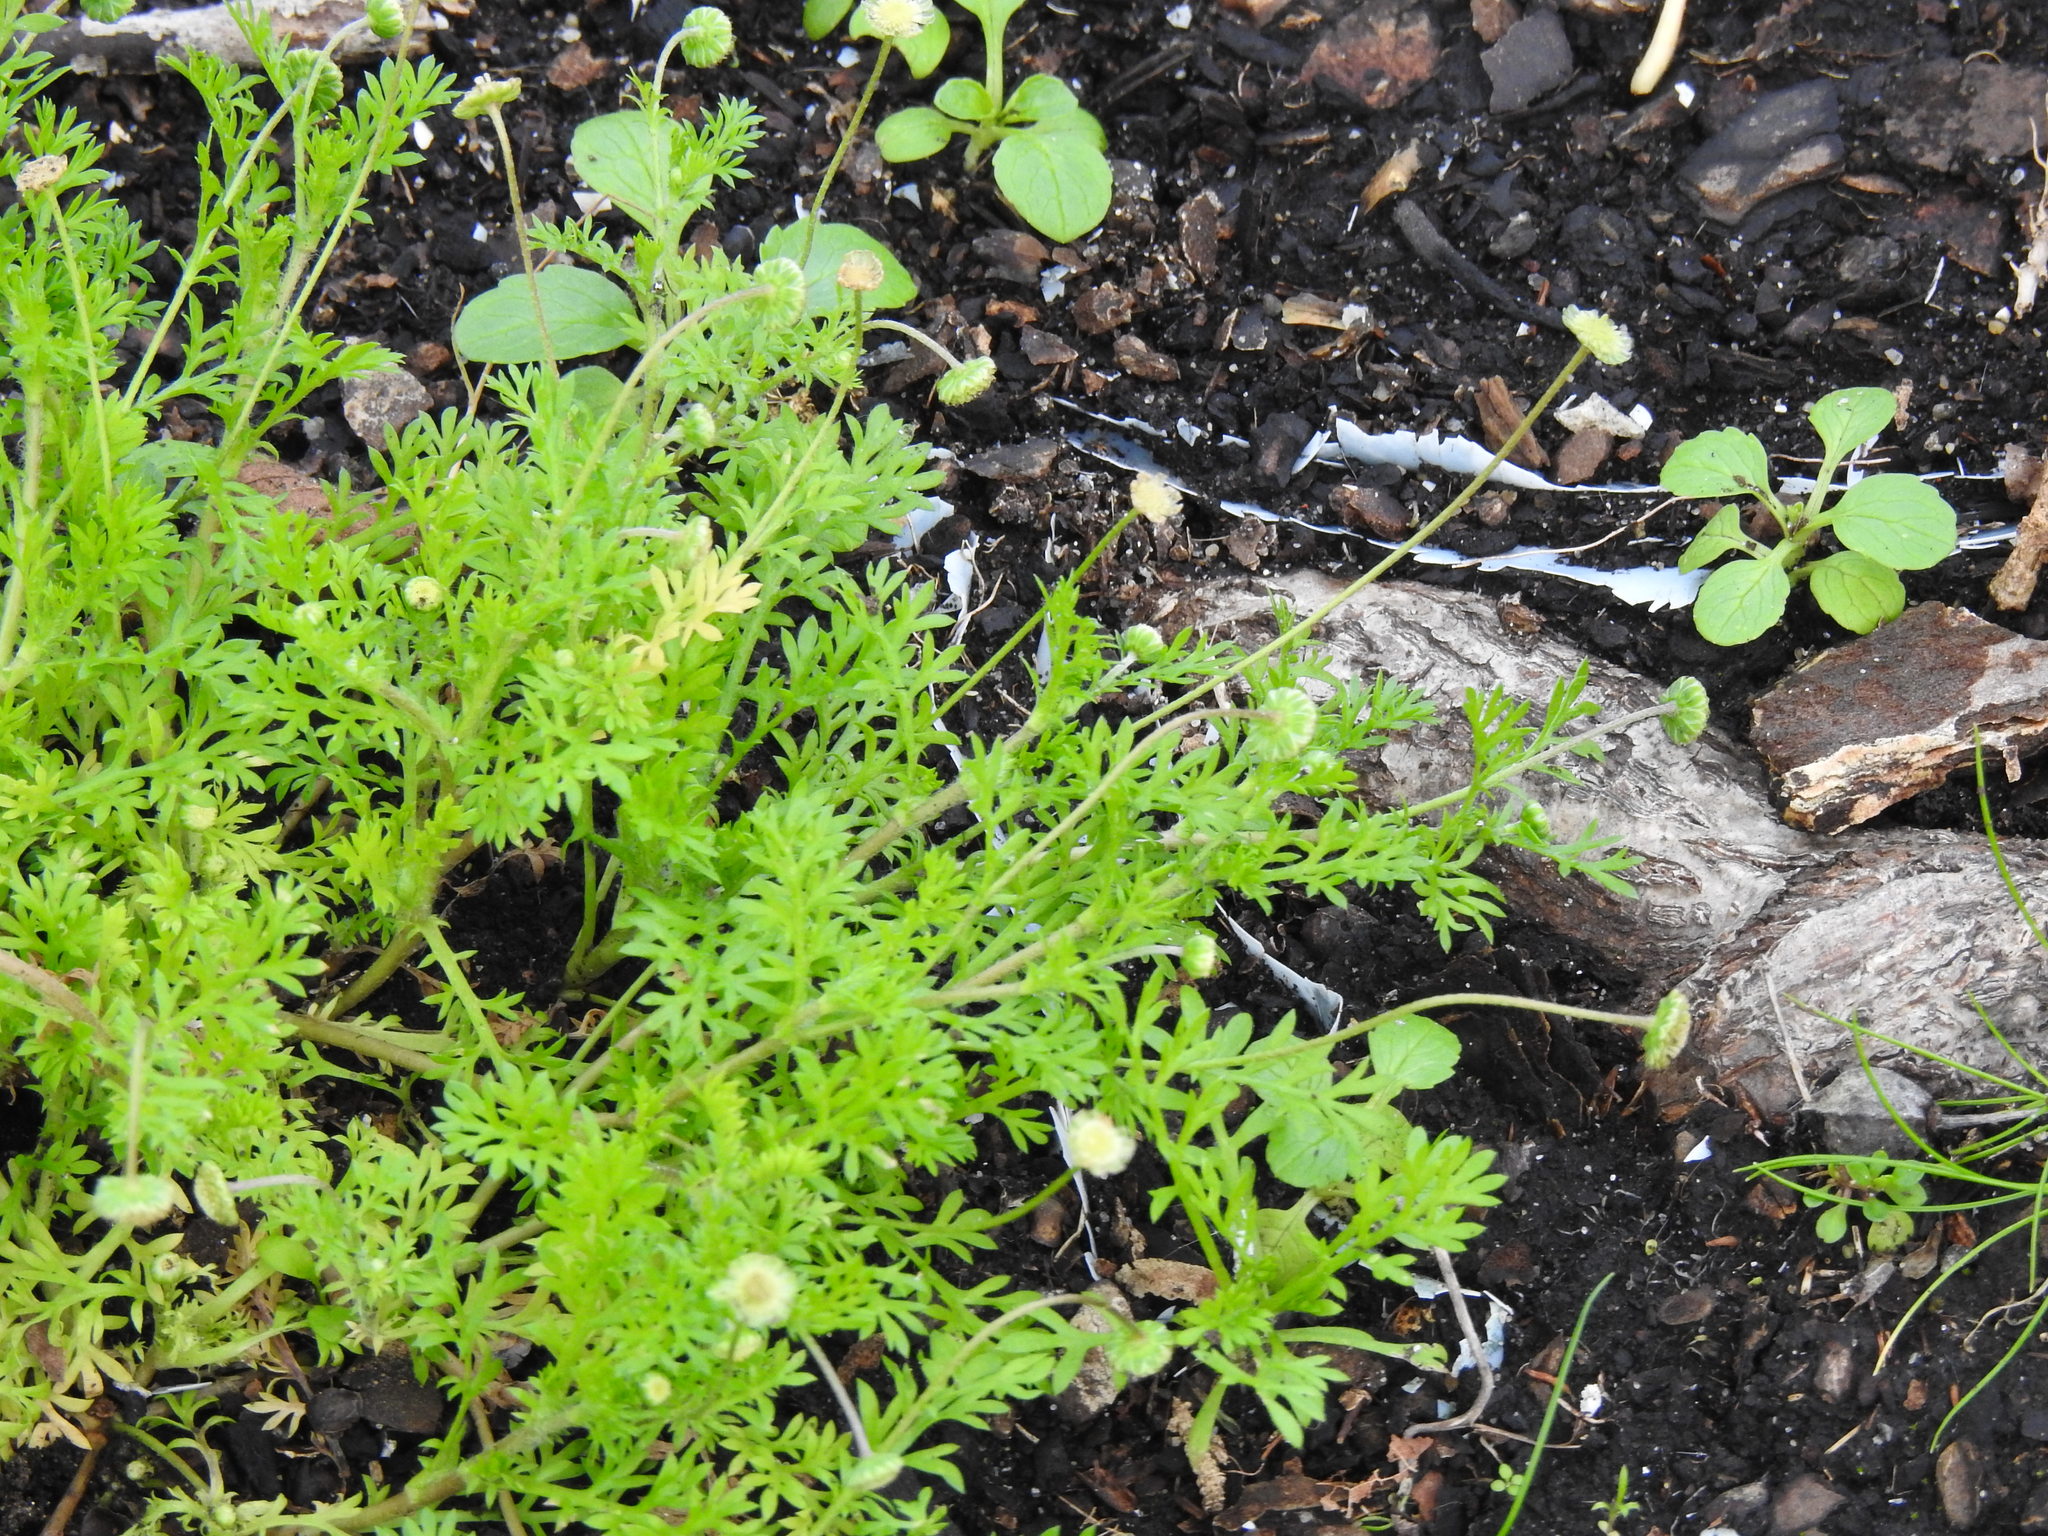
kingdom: Plantae
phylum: Tracheophyta
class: Magnoliopsida
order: Asterales
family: Asteraceae
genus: Cotula
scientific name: Cotula australis
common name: Australian waterbuttons
